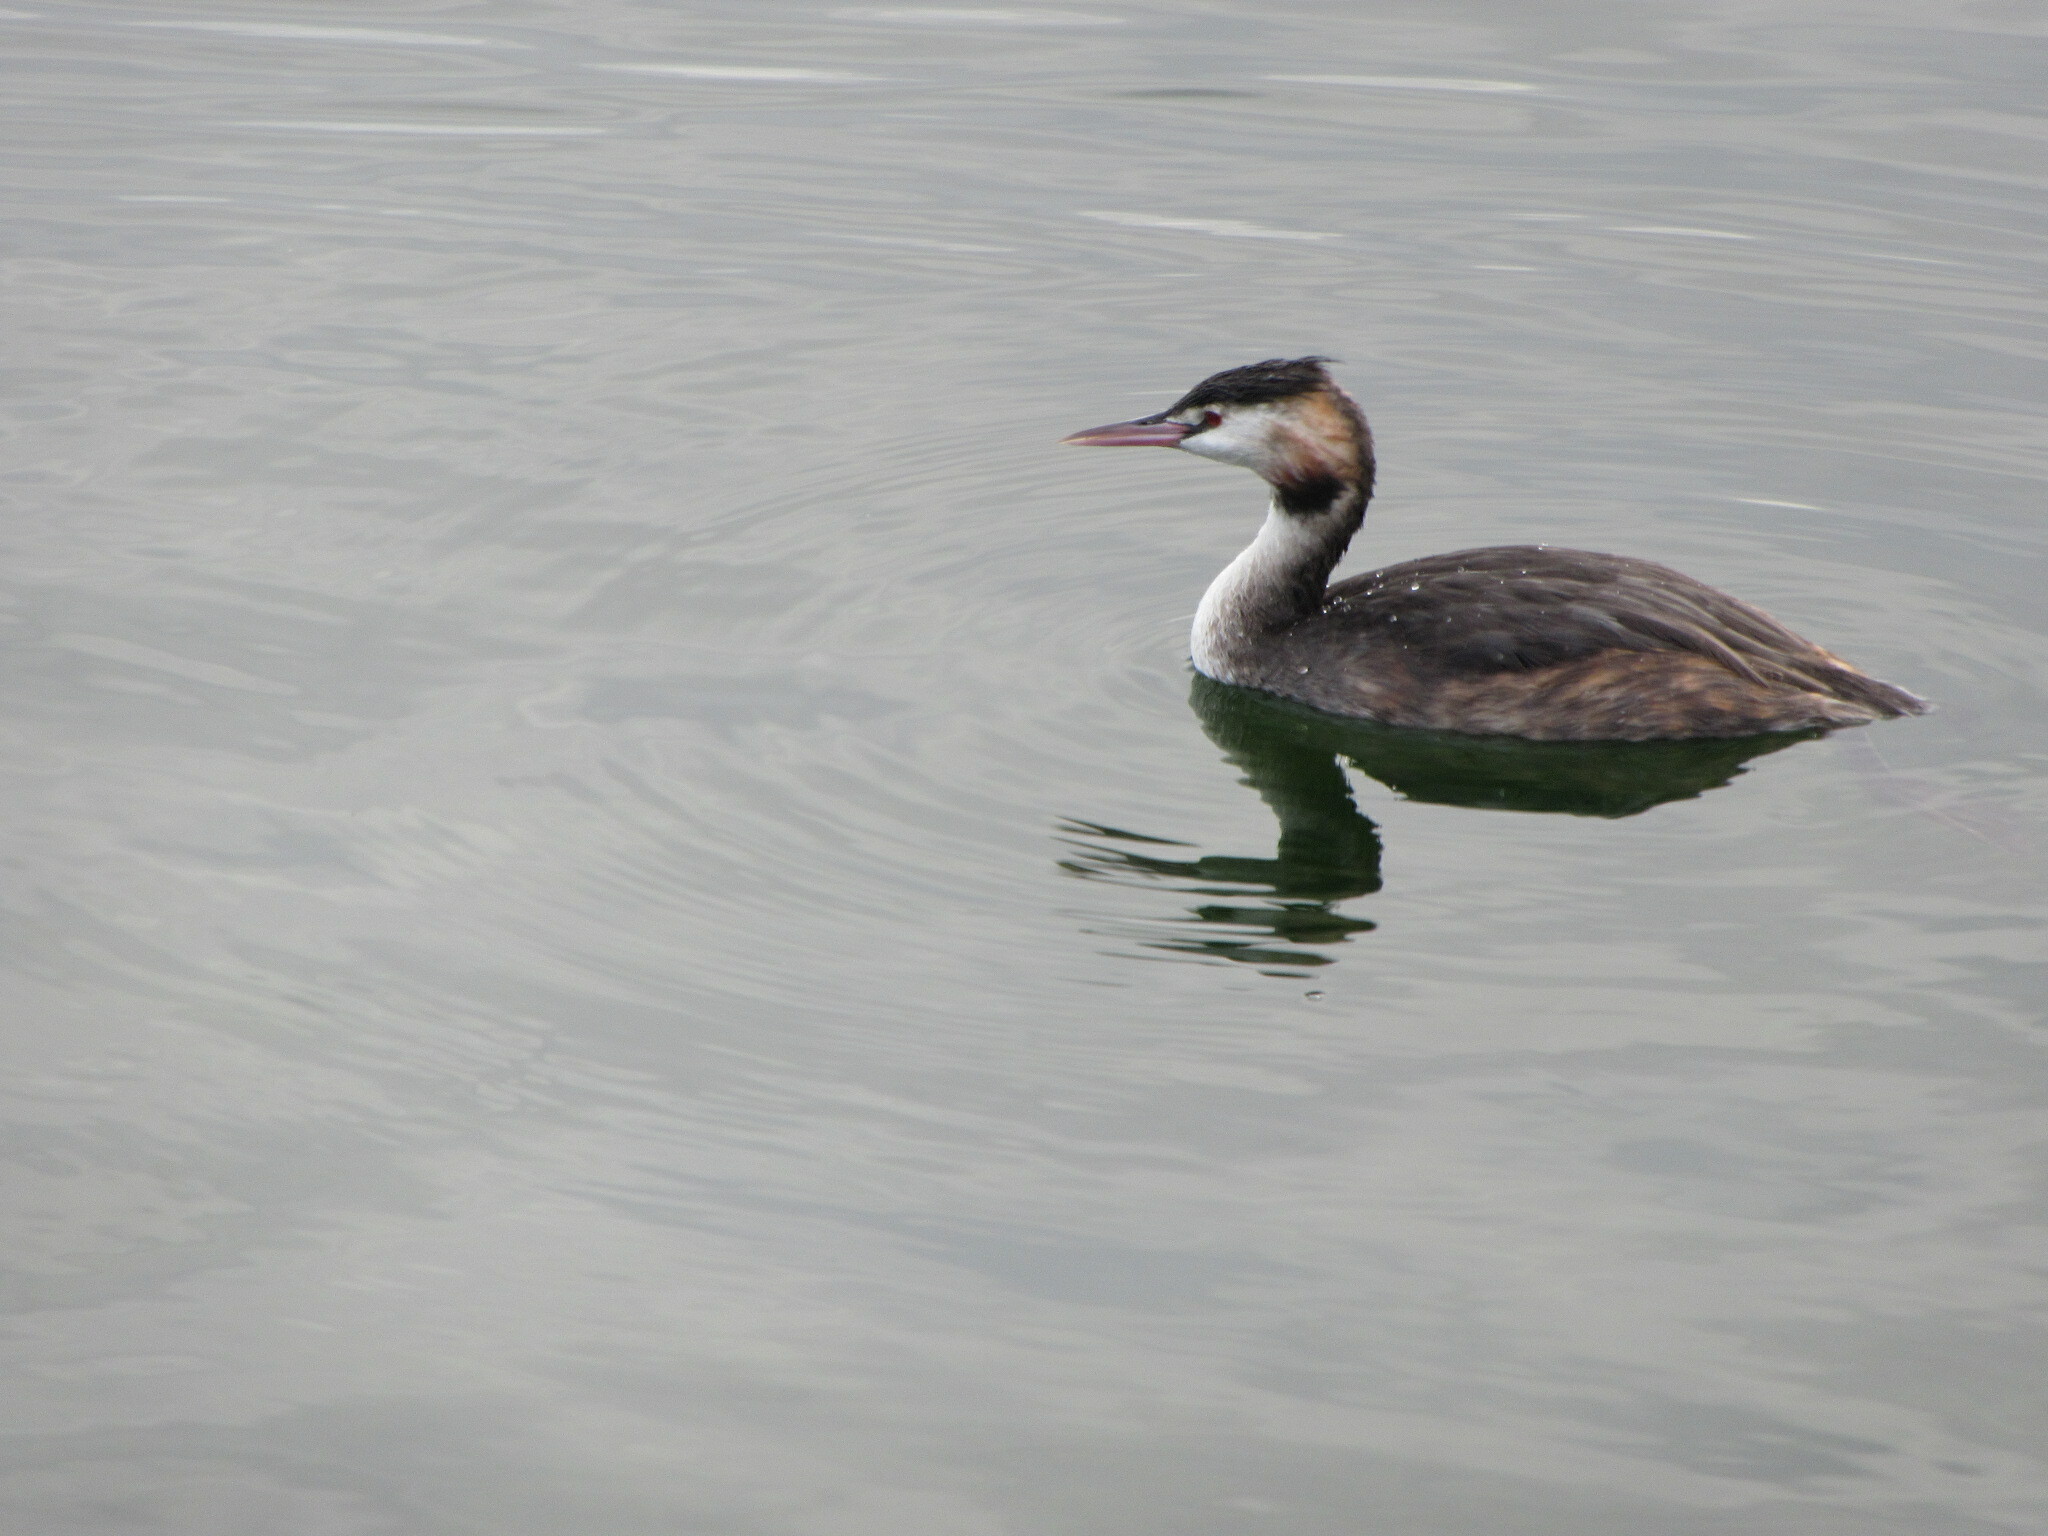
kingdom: Animalia
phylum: Chordata
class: Aves
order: Podicipediformes
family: Podicipedidae
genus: Podiceps
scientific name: Podiceps cristatus
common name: Great crested grebe
